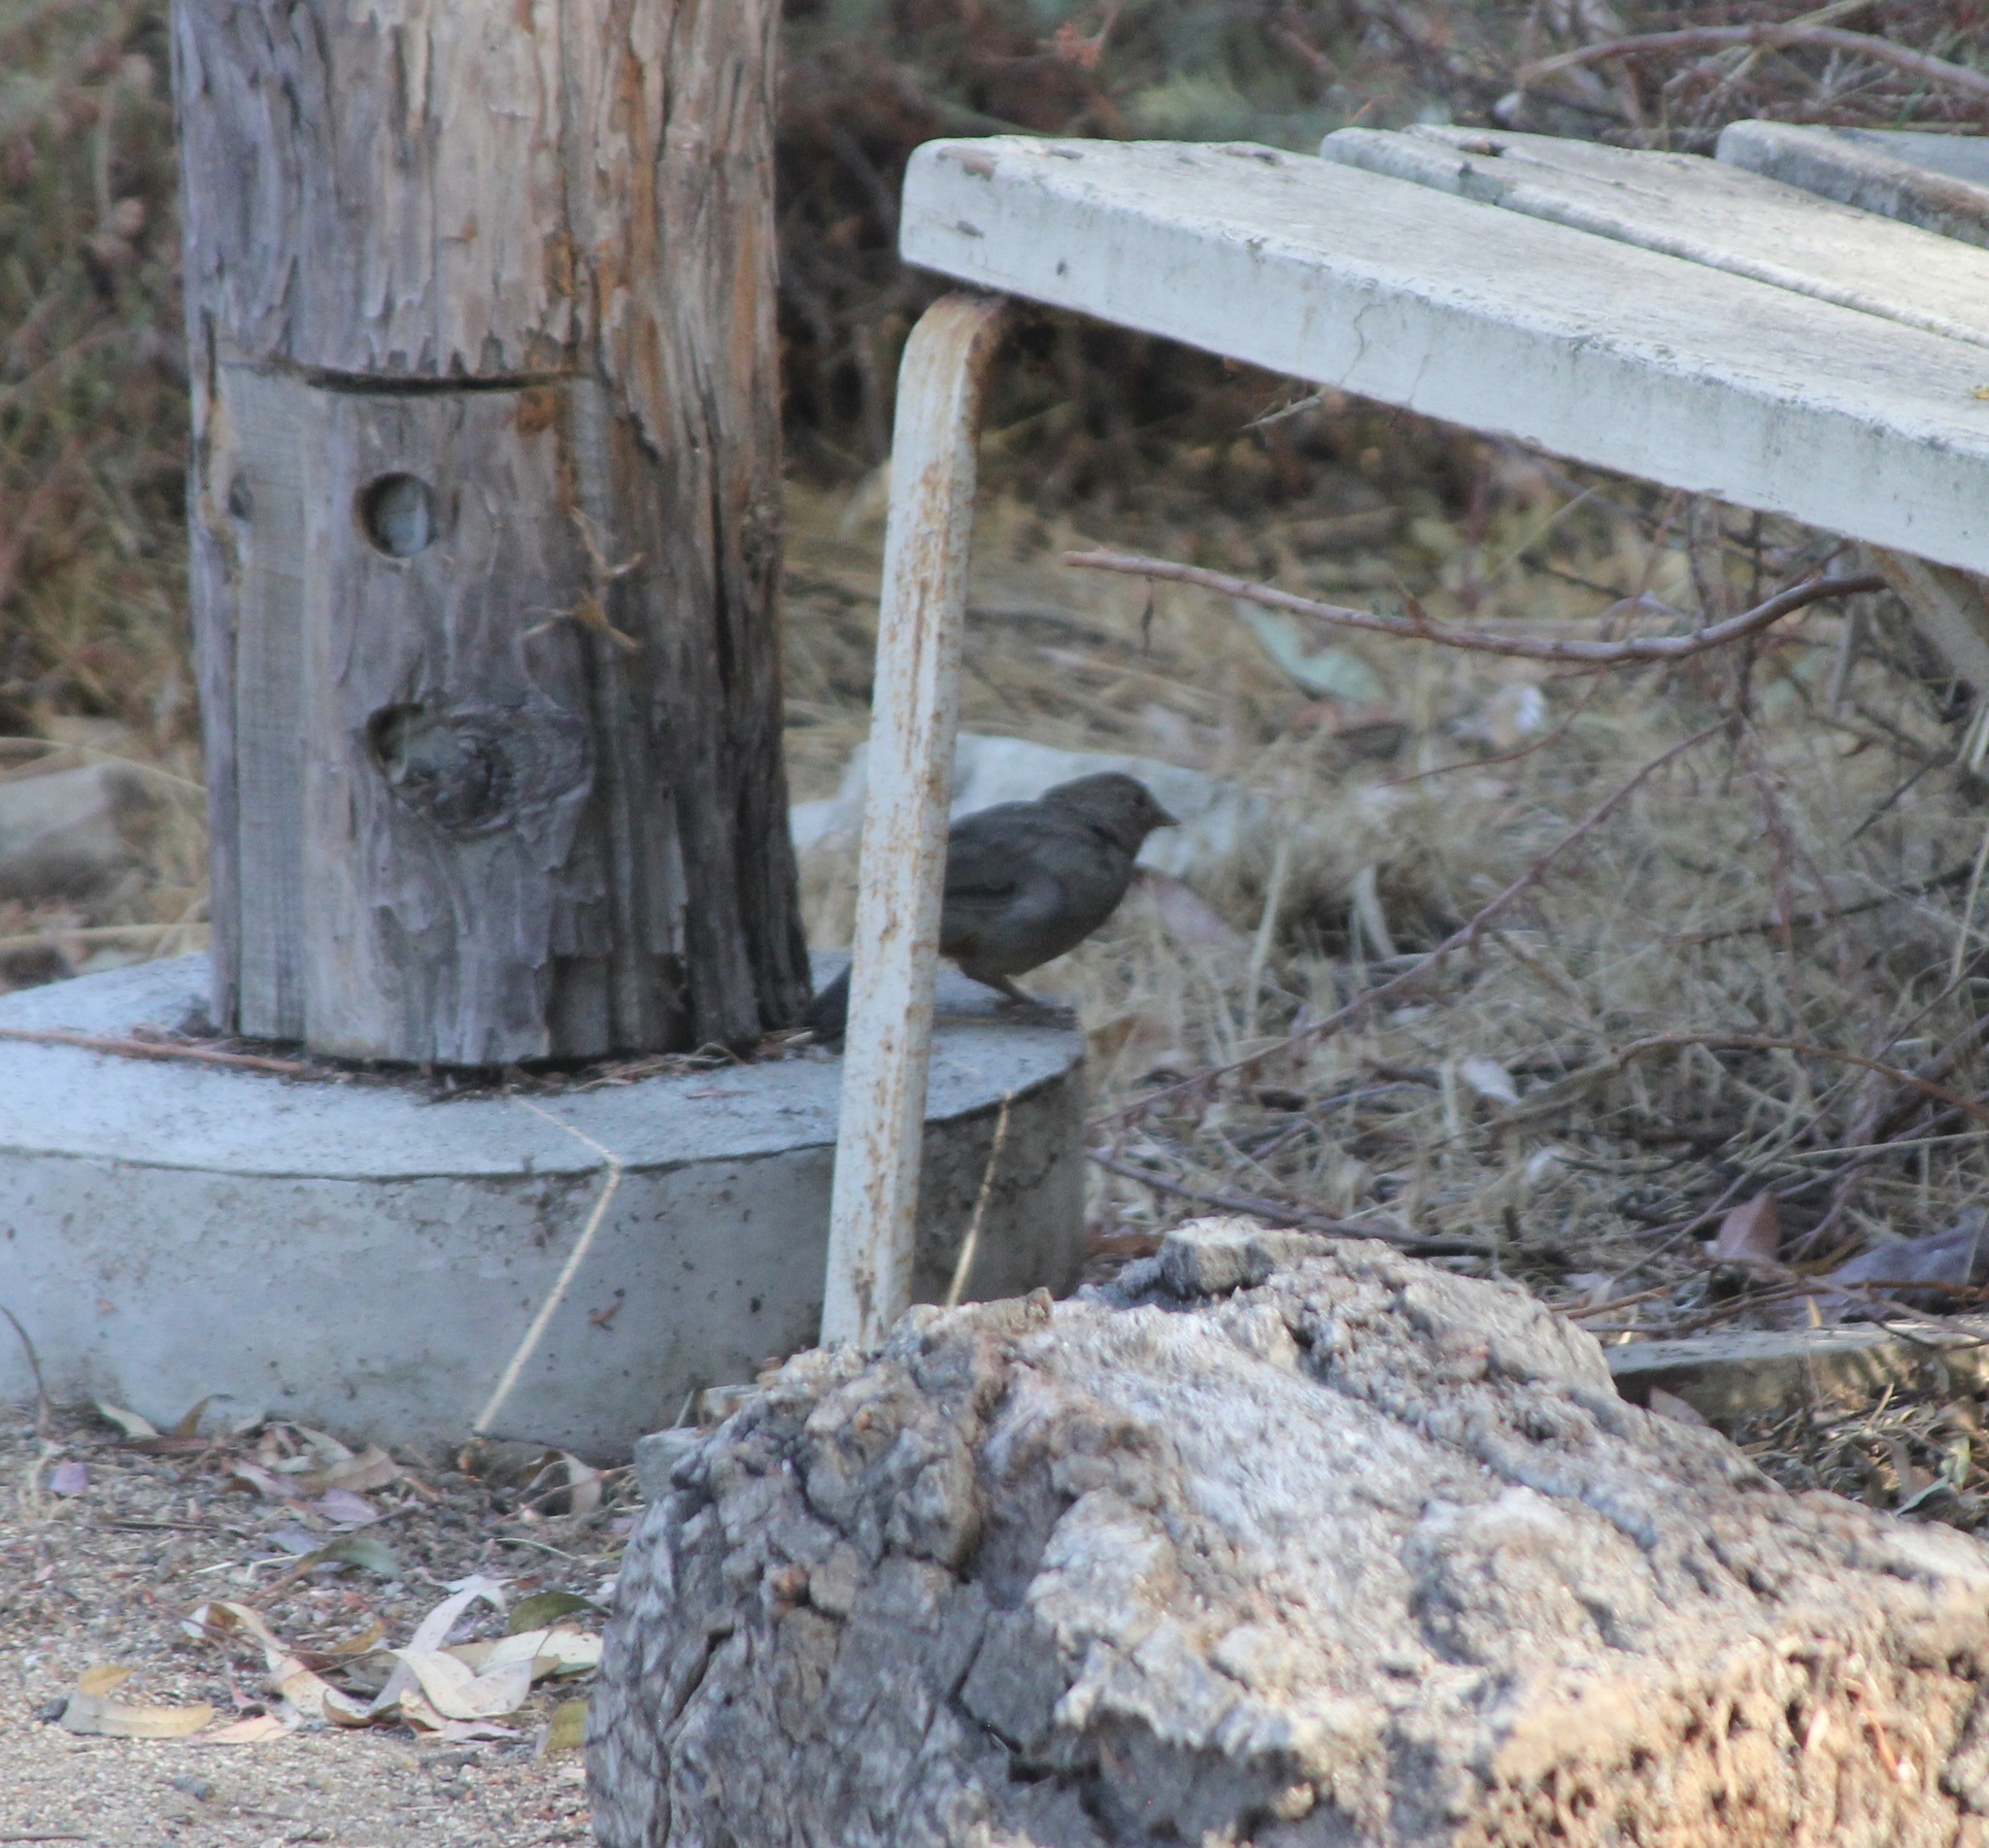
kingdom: Animalia
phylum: Chordata
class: Aves
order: Passeriformes
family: Passerellidae
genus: Melozone
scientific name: Melozone crissalis
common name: California towhee
